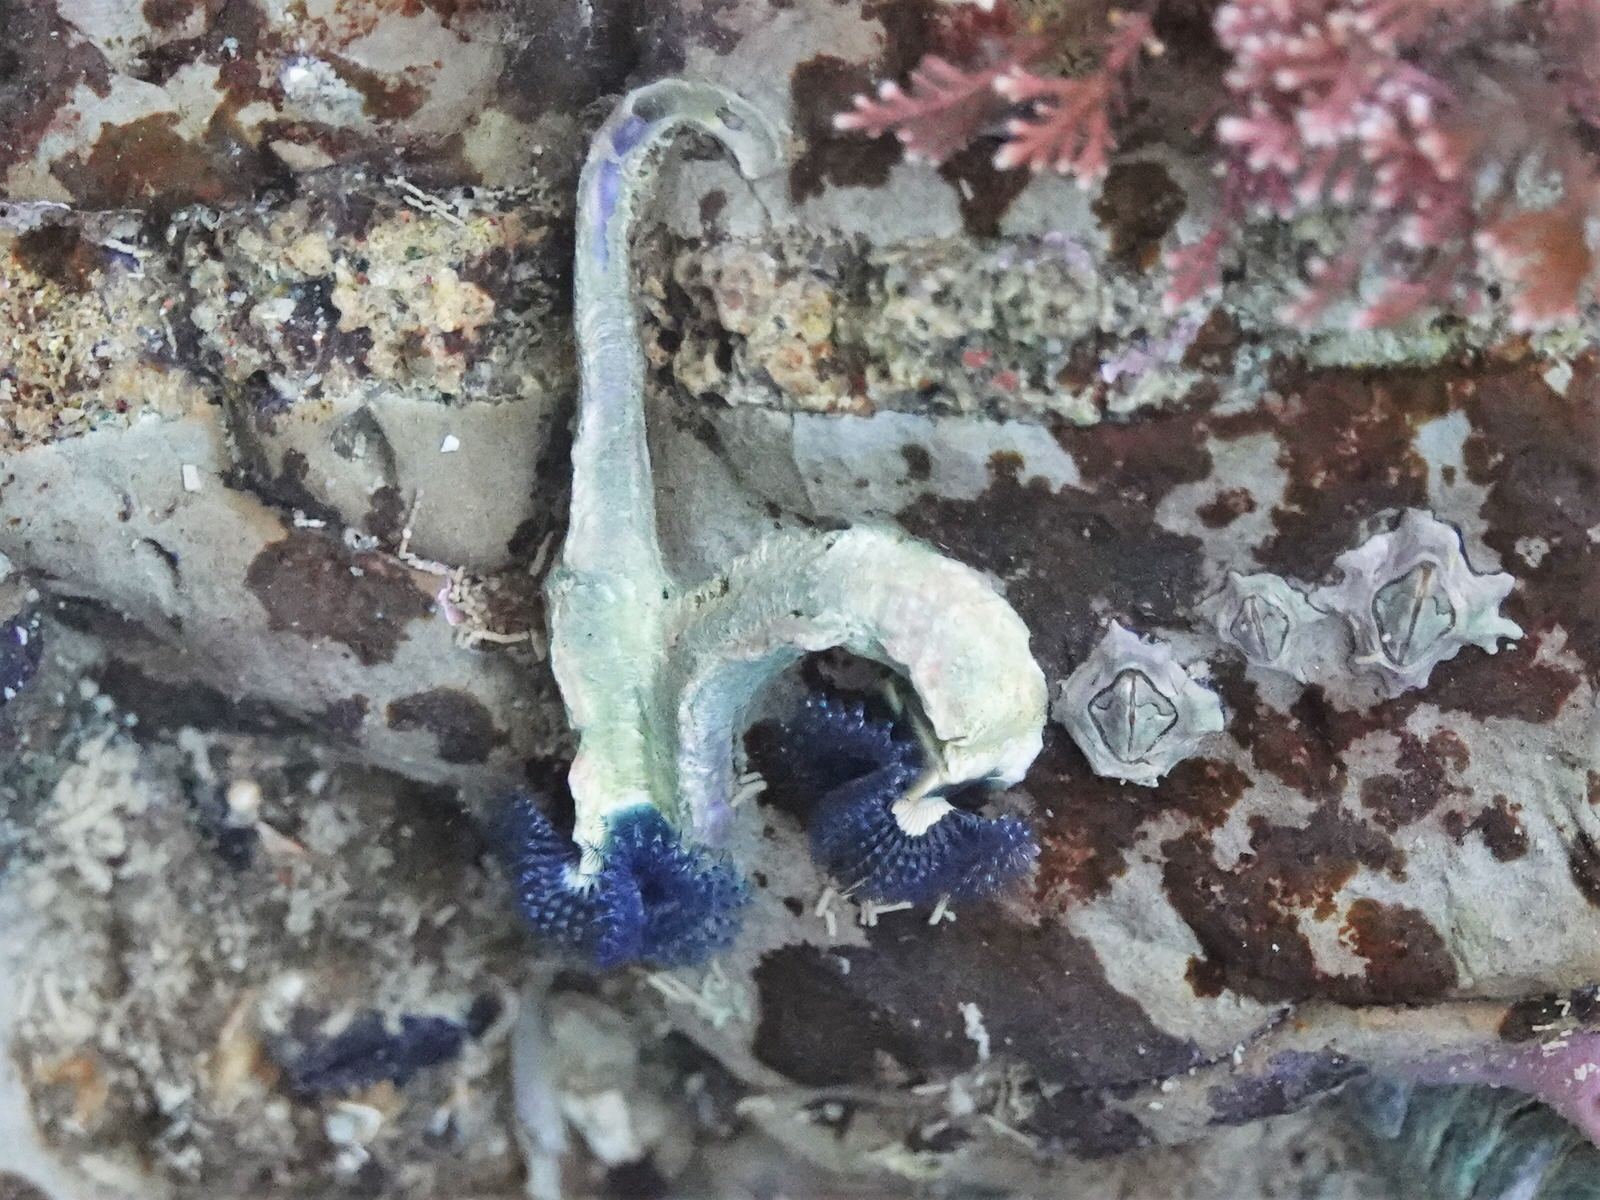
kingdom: Animalia
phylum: Annelida
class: Polychaeta
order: Sabellida
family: Serpulidae
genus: Spirobranchus
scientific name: Spirobranchus cariniferus
